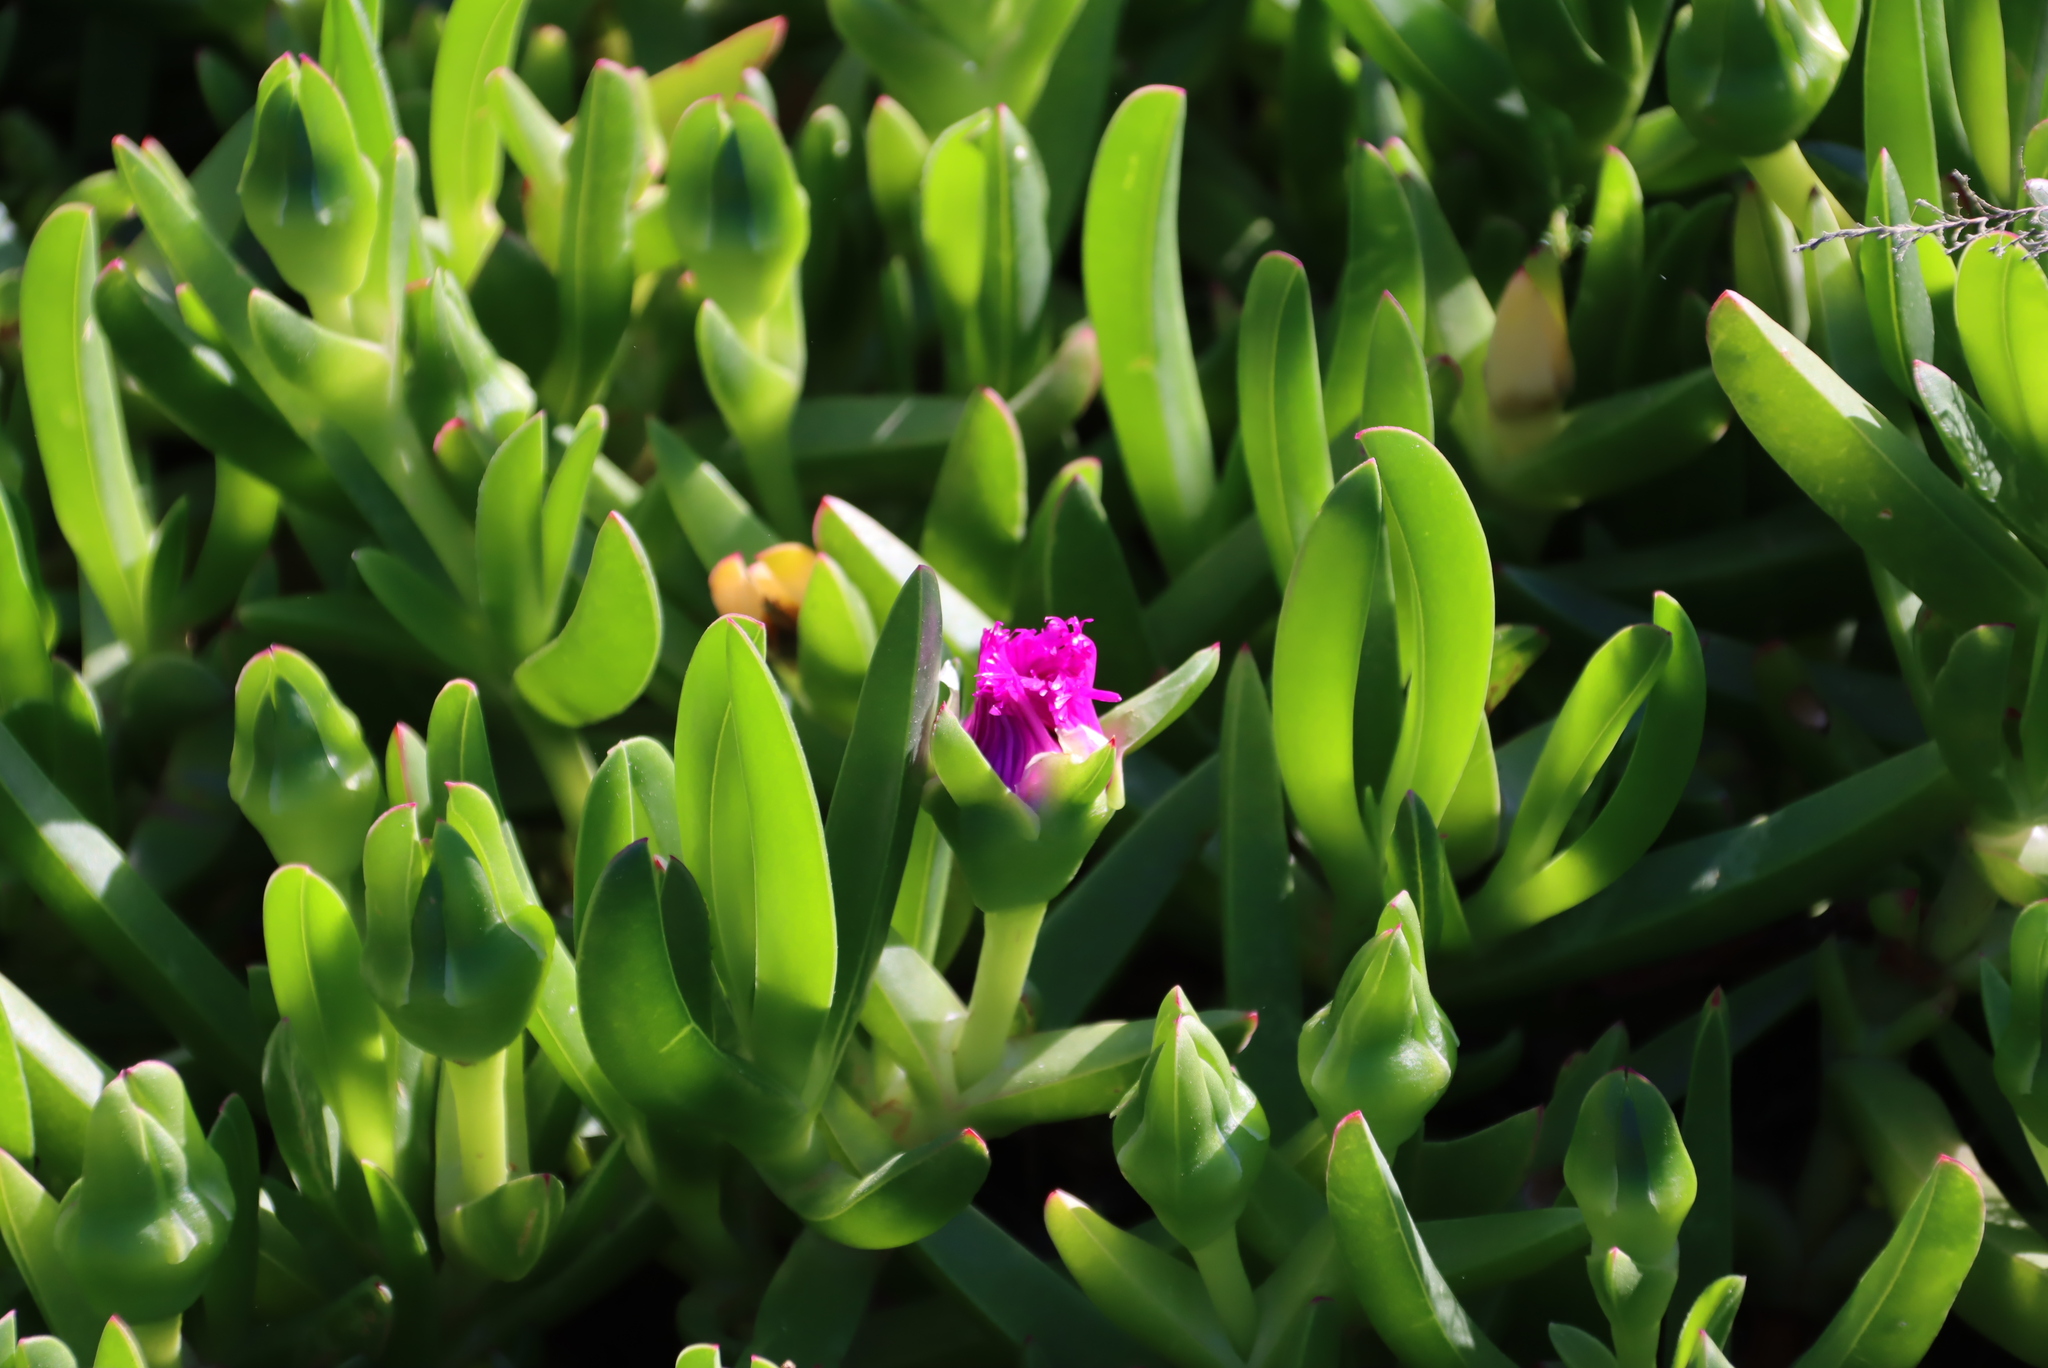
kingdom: Plantae
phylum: Tracheophyta
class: Magnoliopsida
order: Caryophyllales
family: Aizoaceae
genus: Carpobrotus
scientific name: Carpobrotus deliciosus
